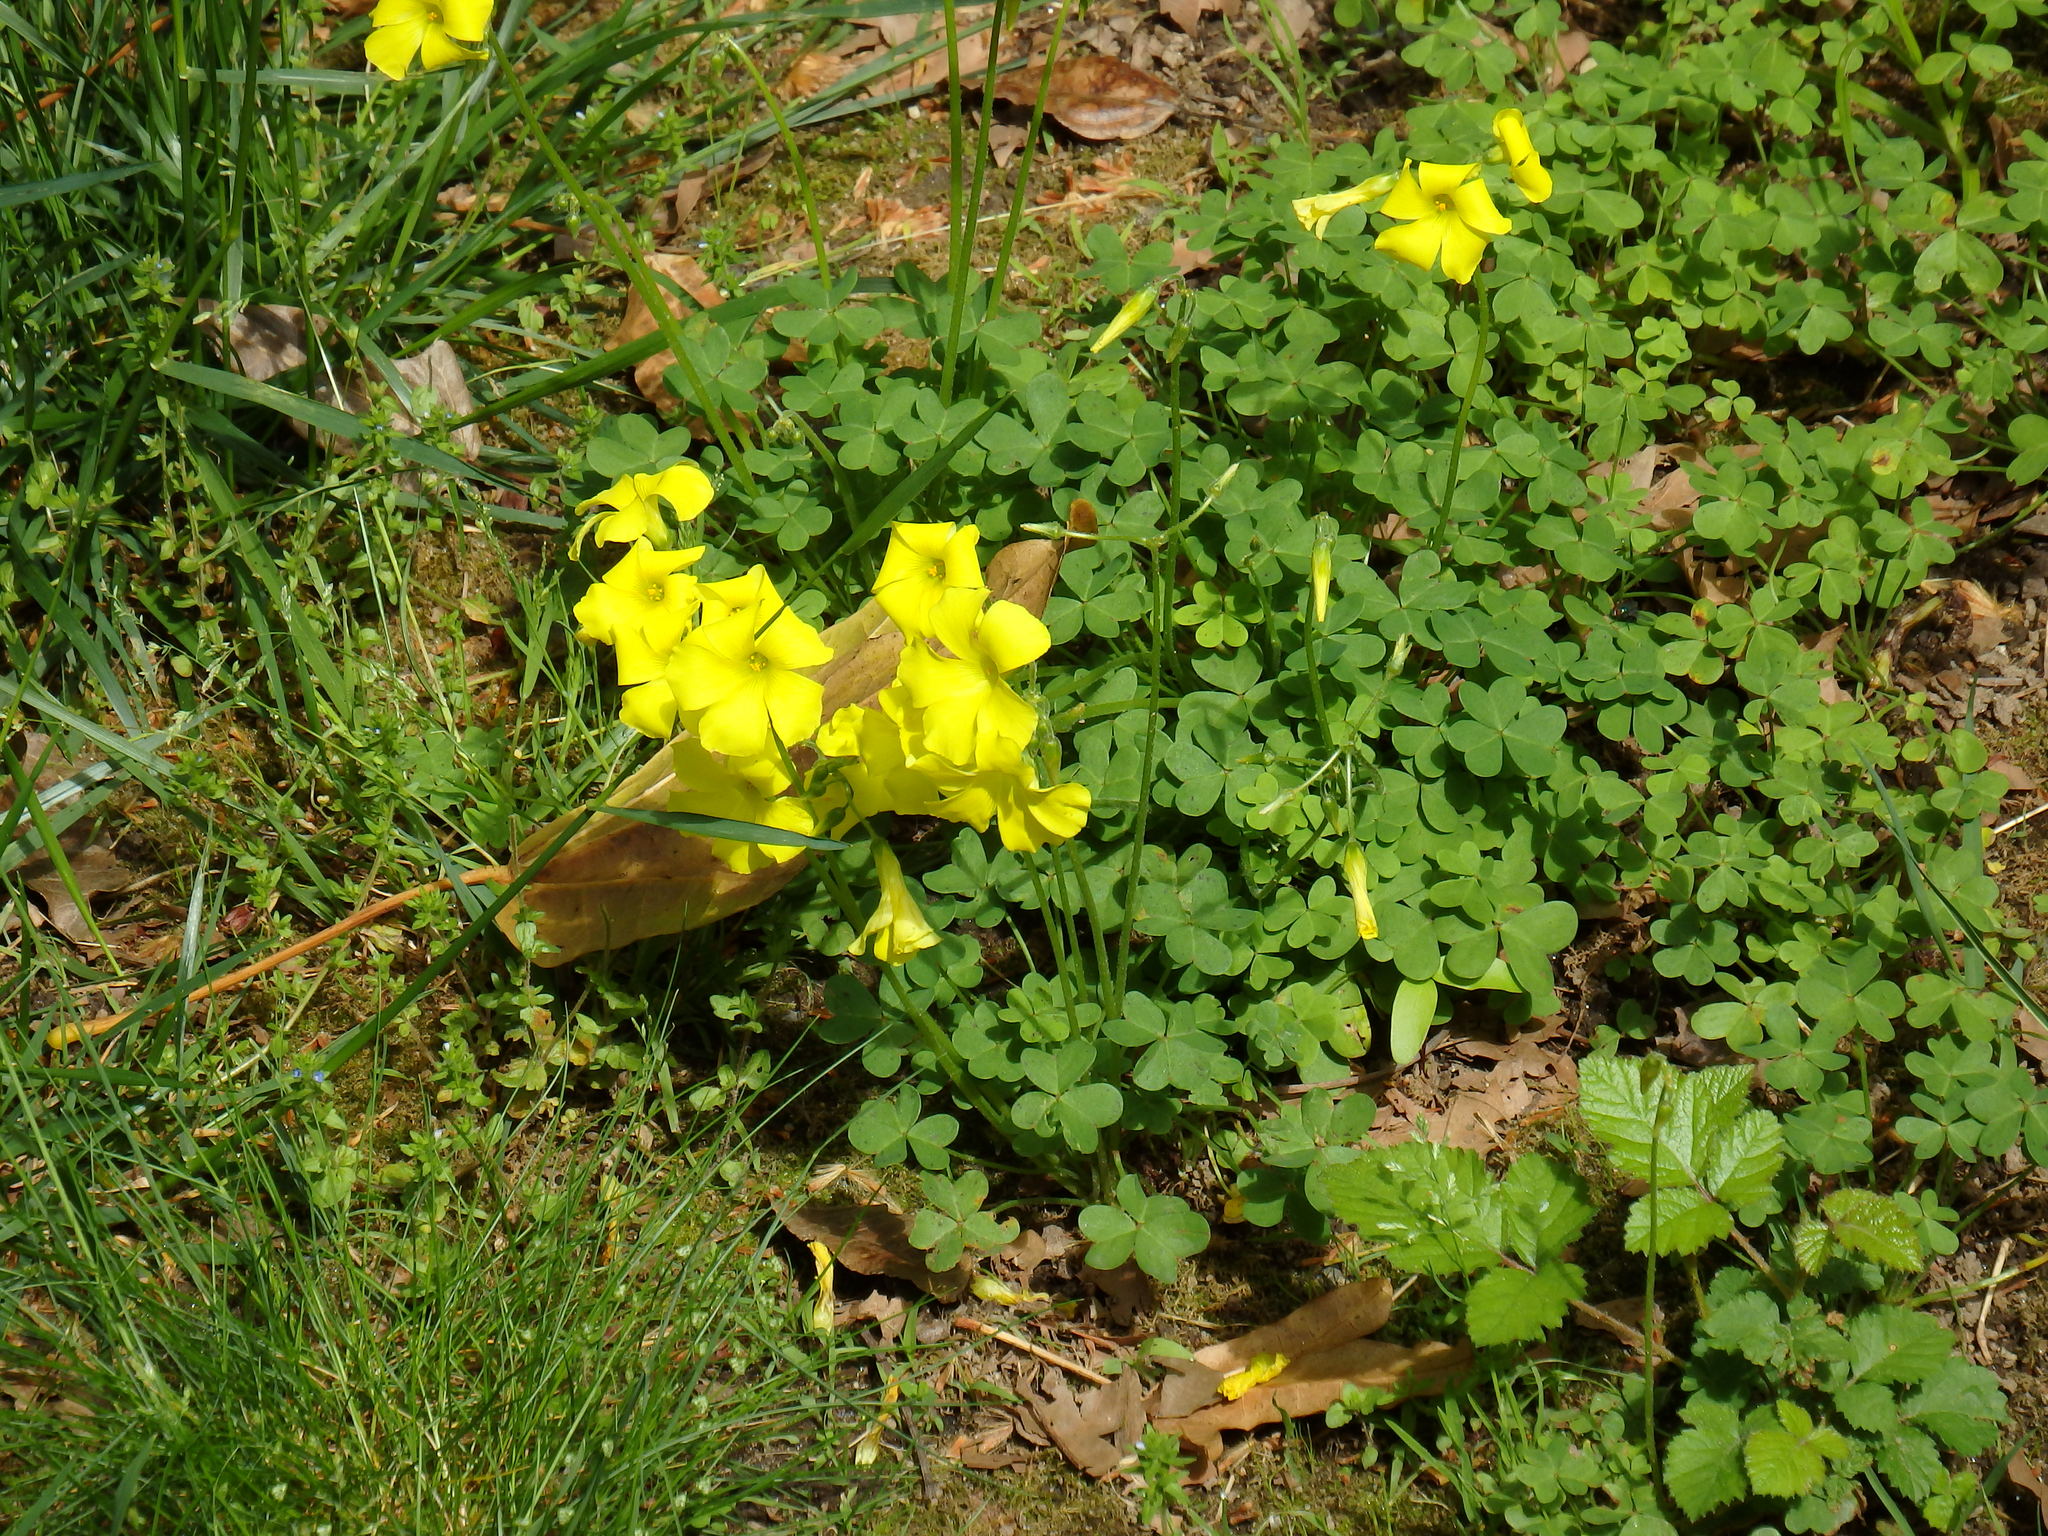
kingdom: Plantae
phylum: Tracheophyta
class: Magnoliopsida
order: Oxalidales
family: Oxalidaceae
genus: Oxalis
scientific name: Oxalis pes-caprae
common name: Bermuda-buttercup
